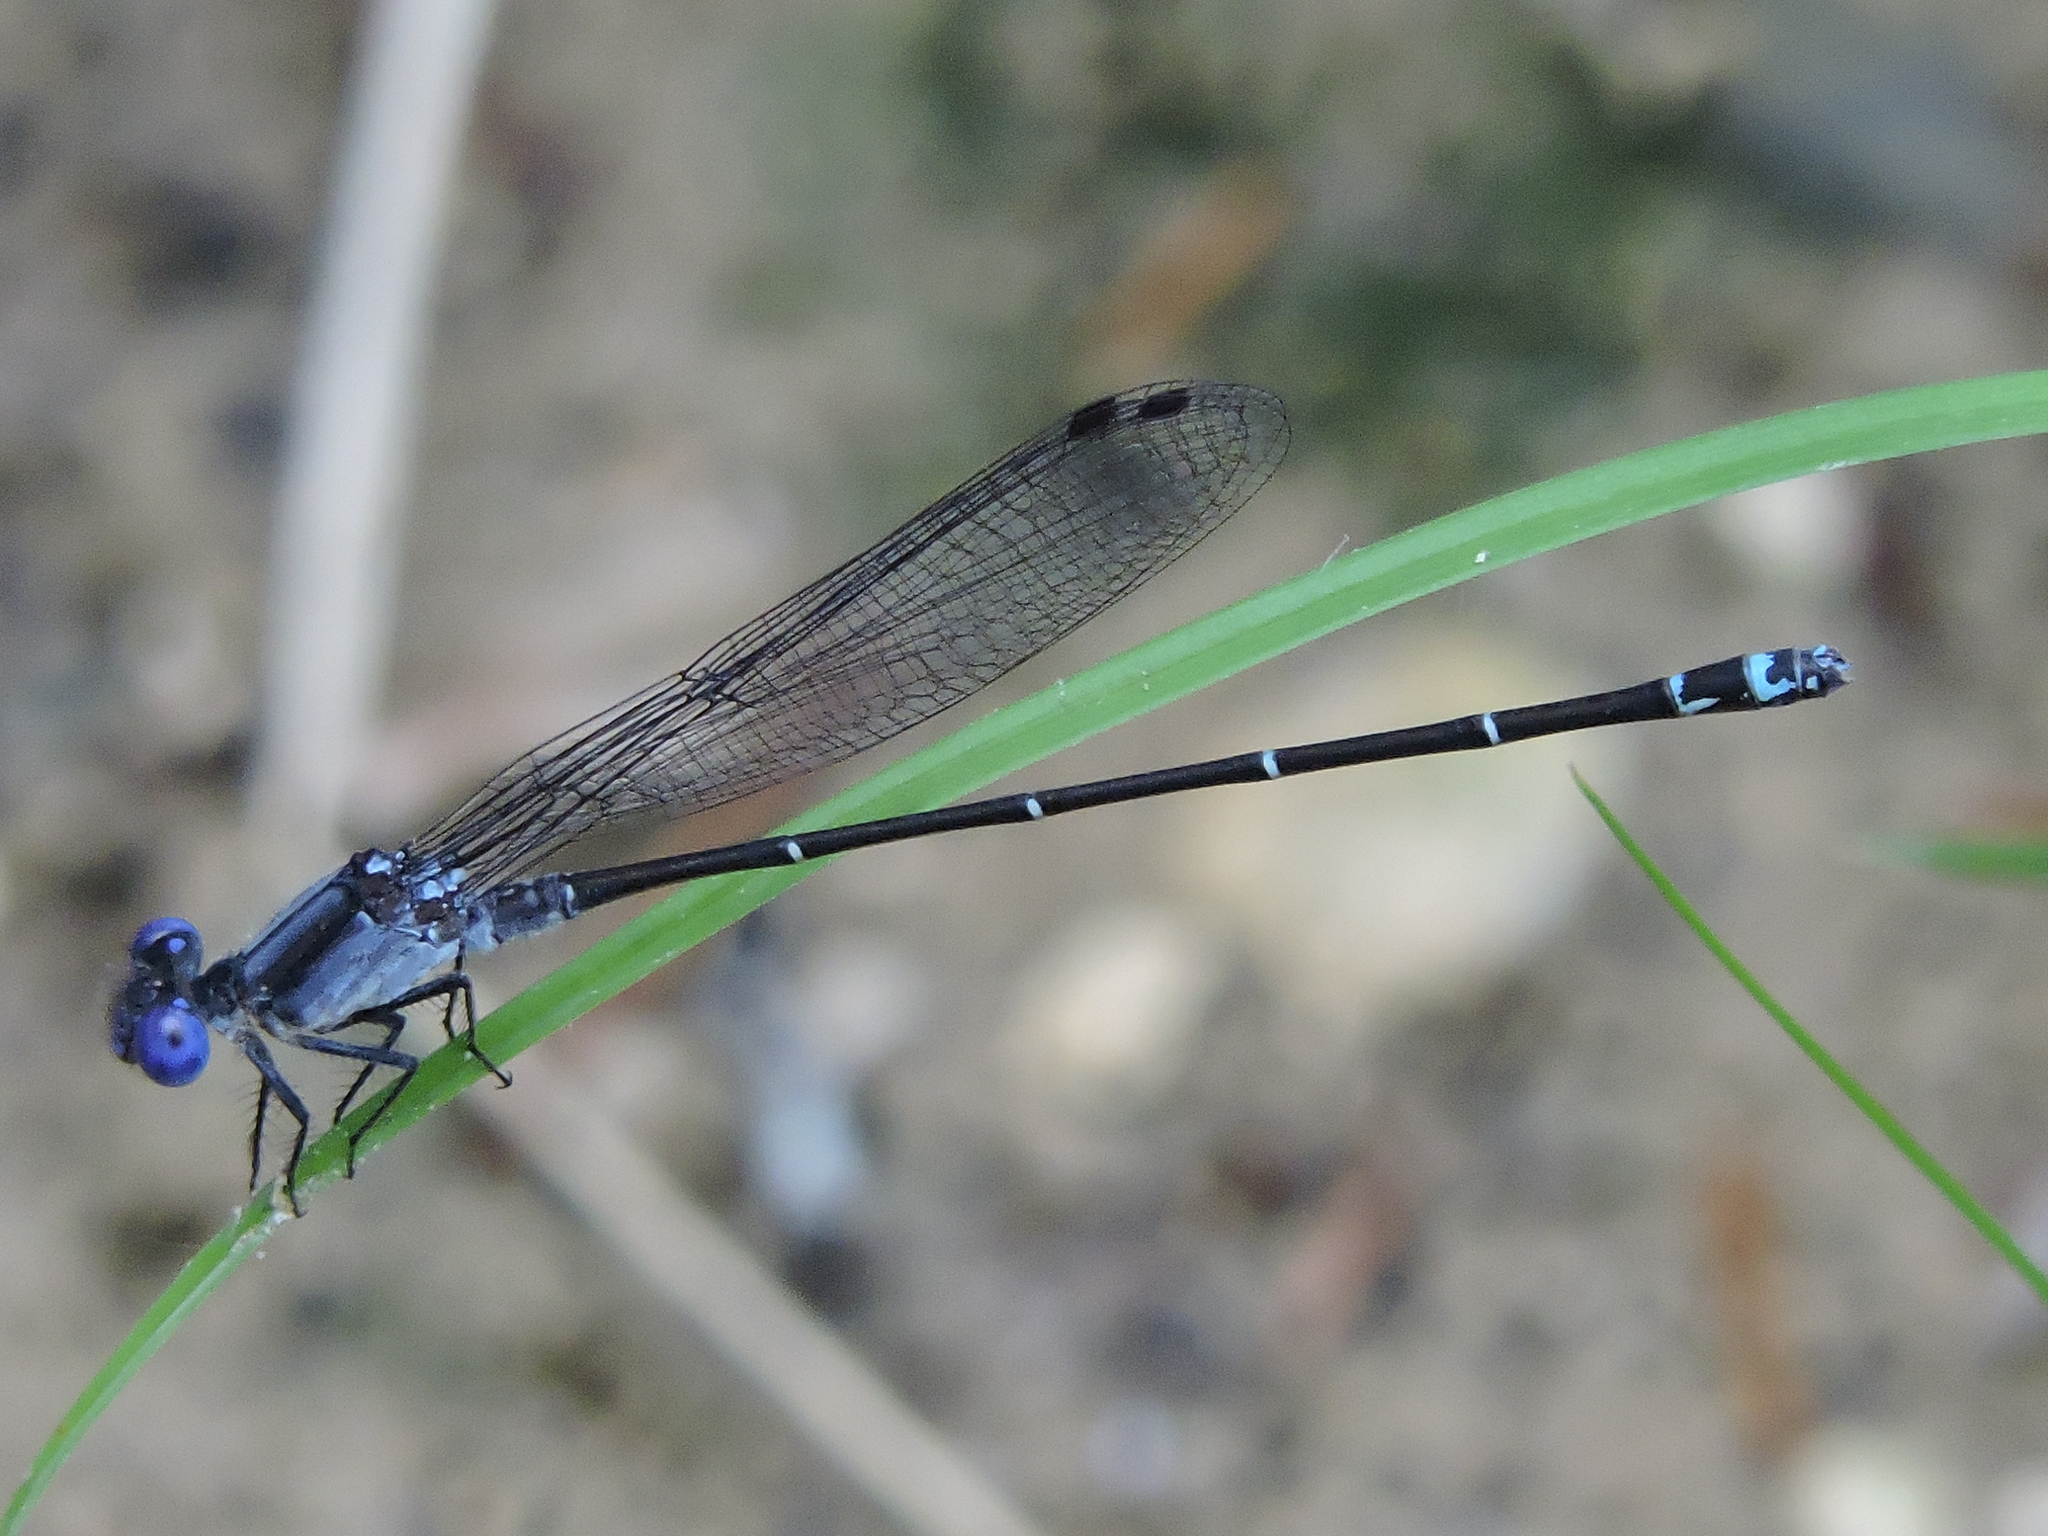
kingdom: Animalia
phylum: Arthropoda
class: Insecta
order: Odonata
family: Coenagrionidae
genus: Argia
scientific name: Argia translata
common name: Dusky dancer
